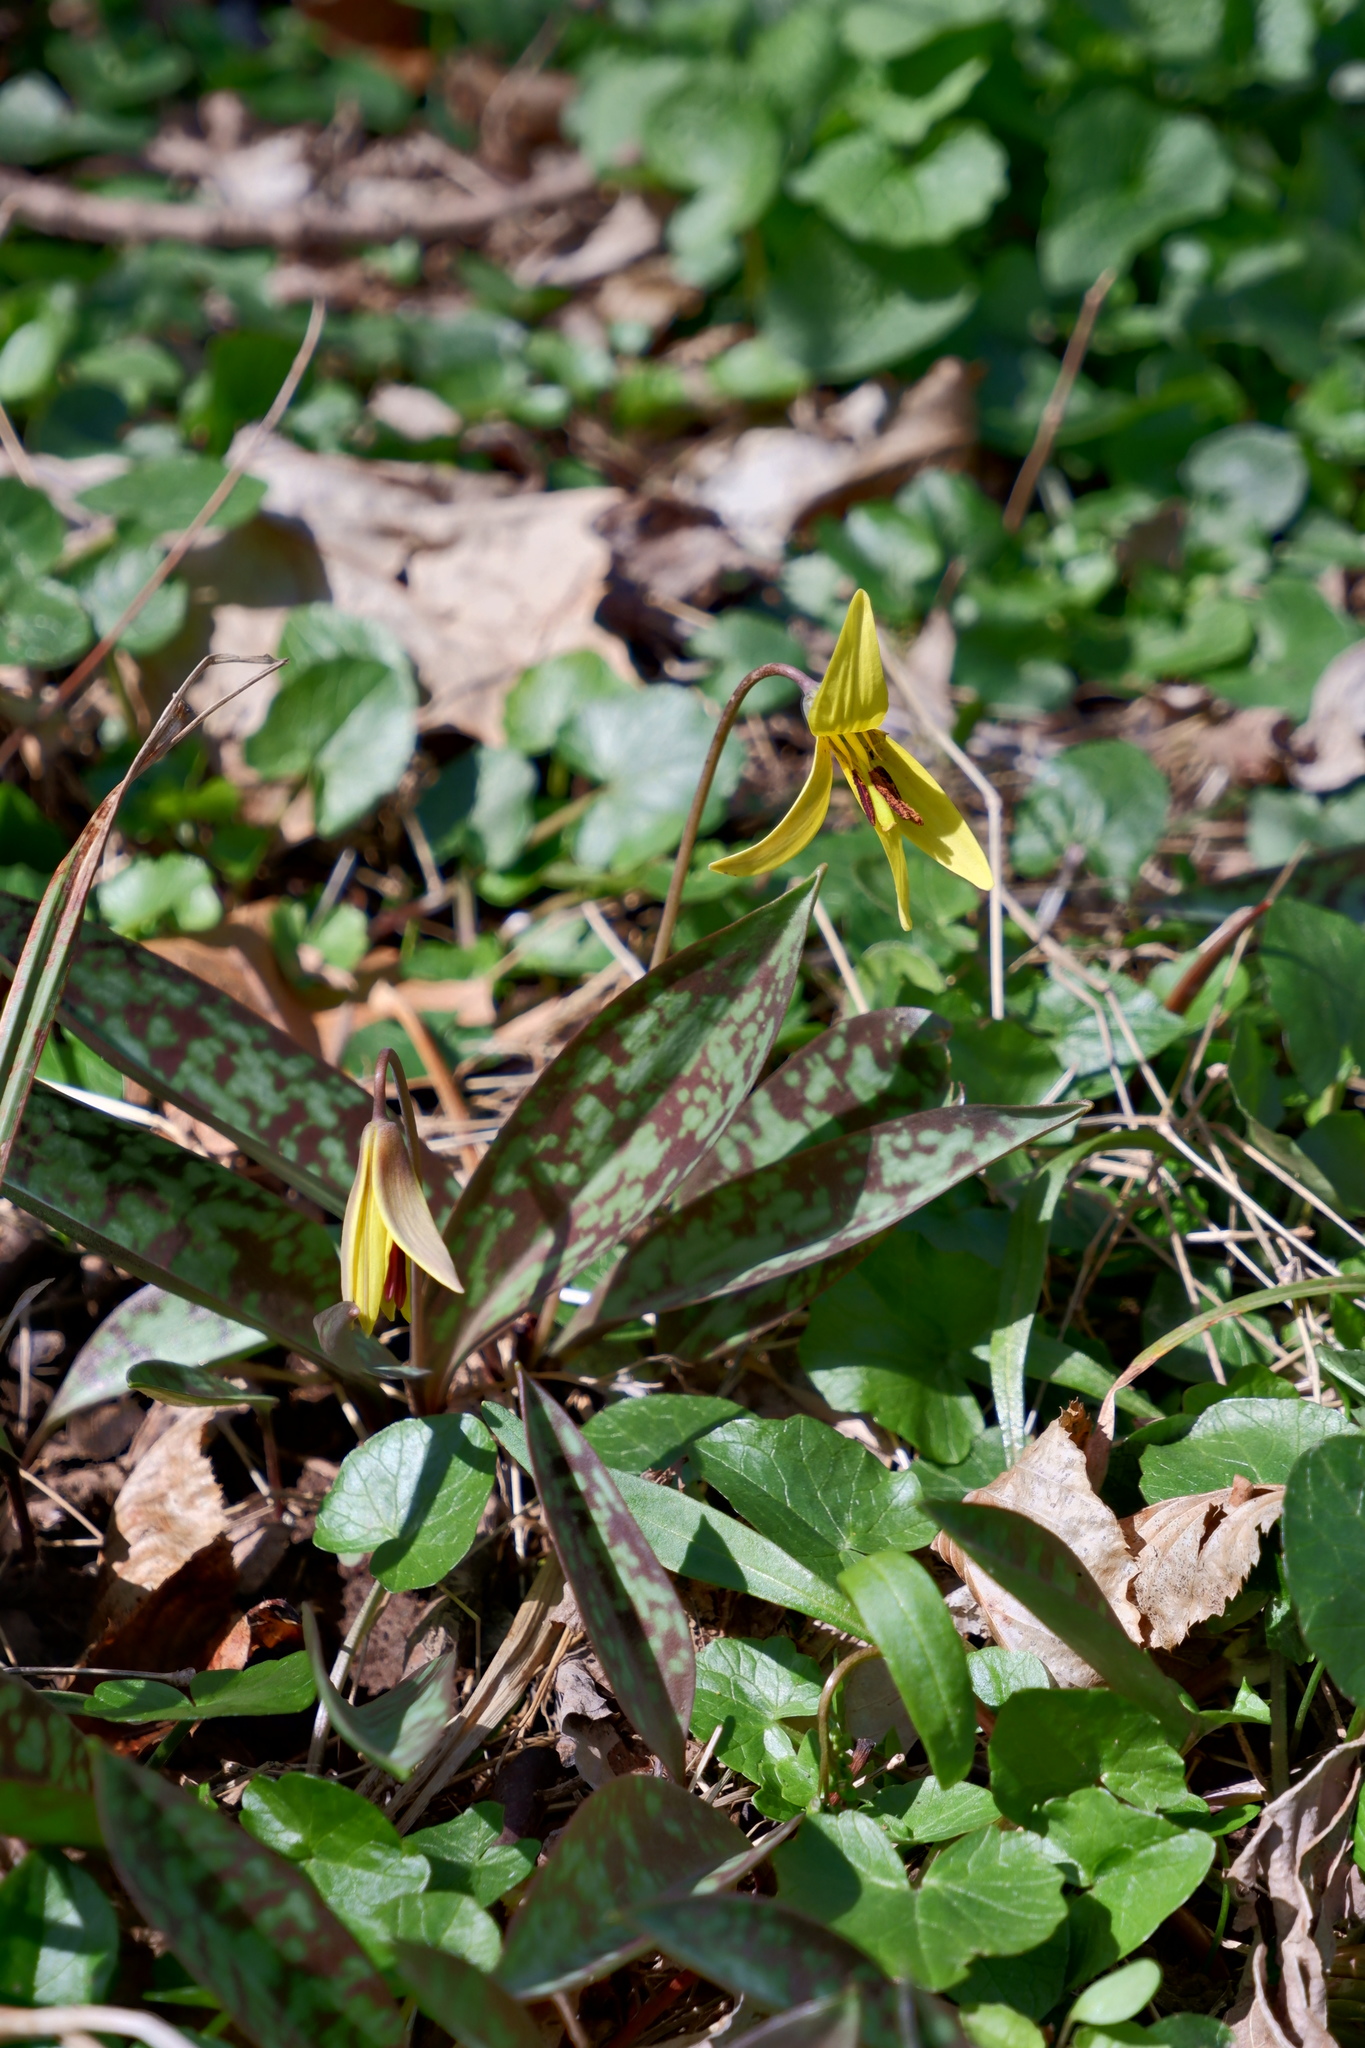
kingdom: Plantae
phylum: Tracheophyta
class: Liliopsida
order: Liliales
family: Liliaceae
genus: Erythronium
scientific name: Erythronium americanum
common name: Yellow adder's-tongue
